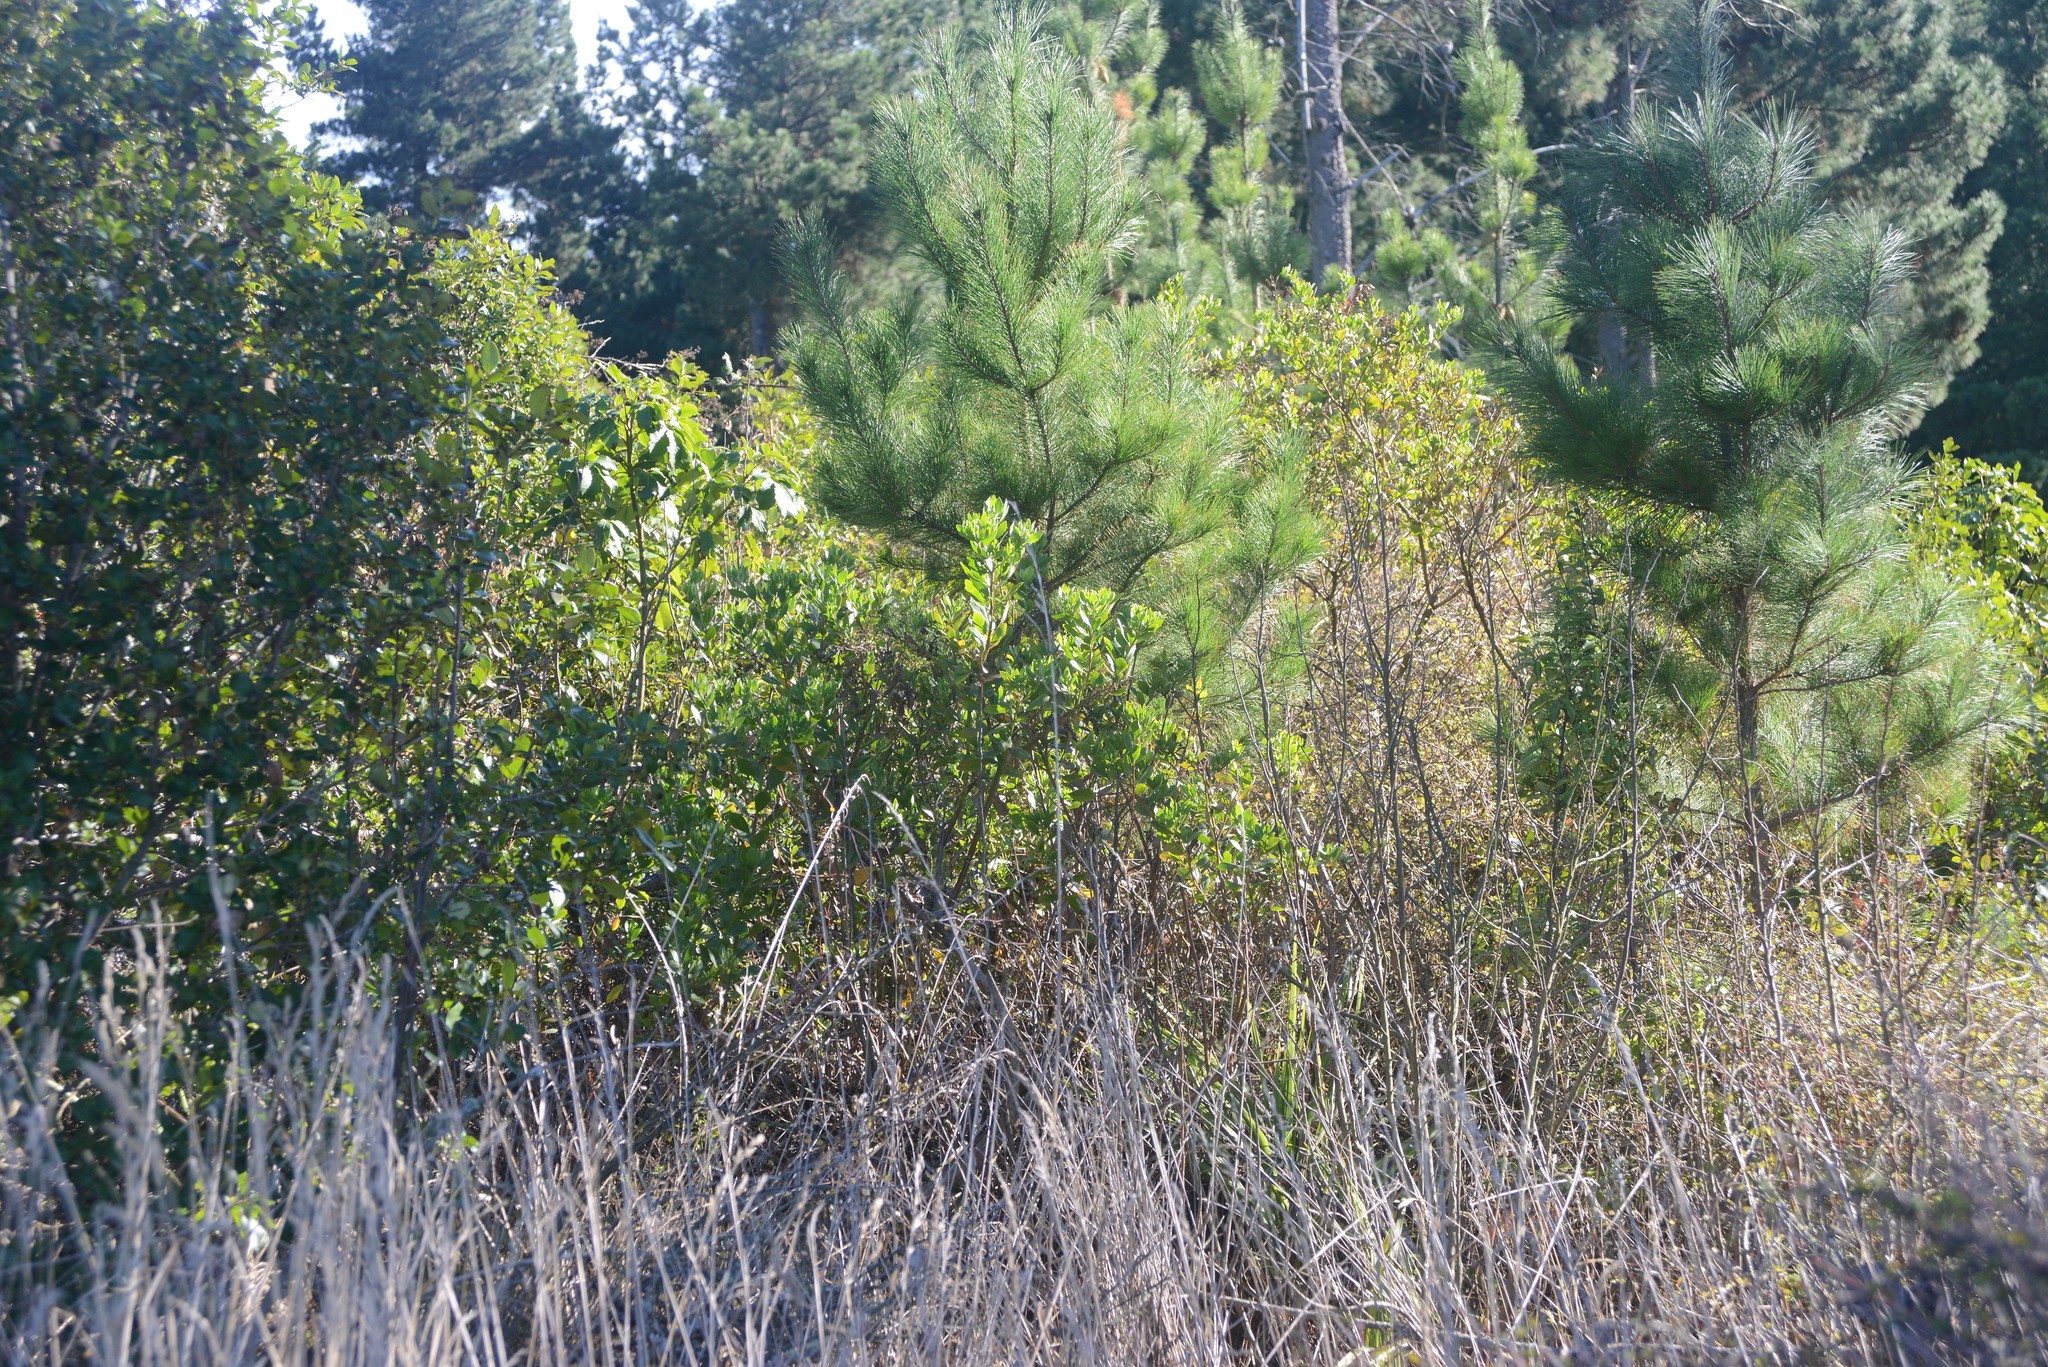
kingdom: Plantae
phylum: Tracheophyta
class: Magnoliopsida
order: Asterales
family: Asteraceae
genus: Osteospermum
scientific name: Osteospermum moniliferum
